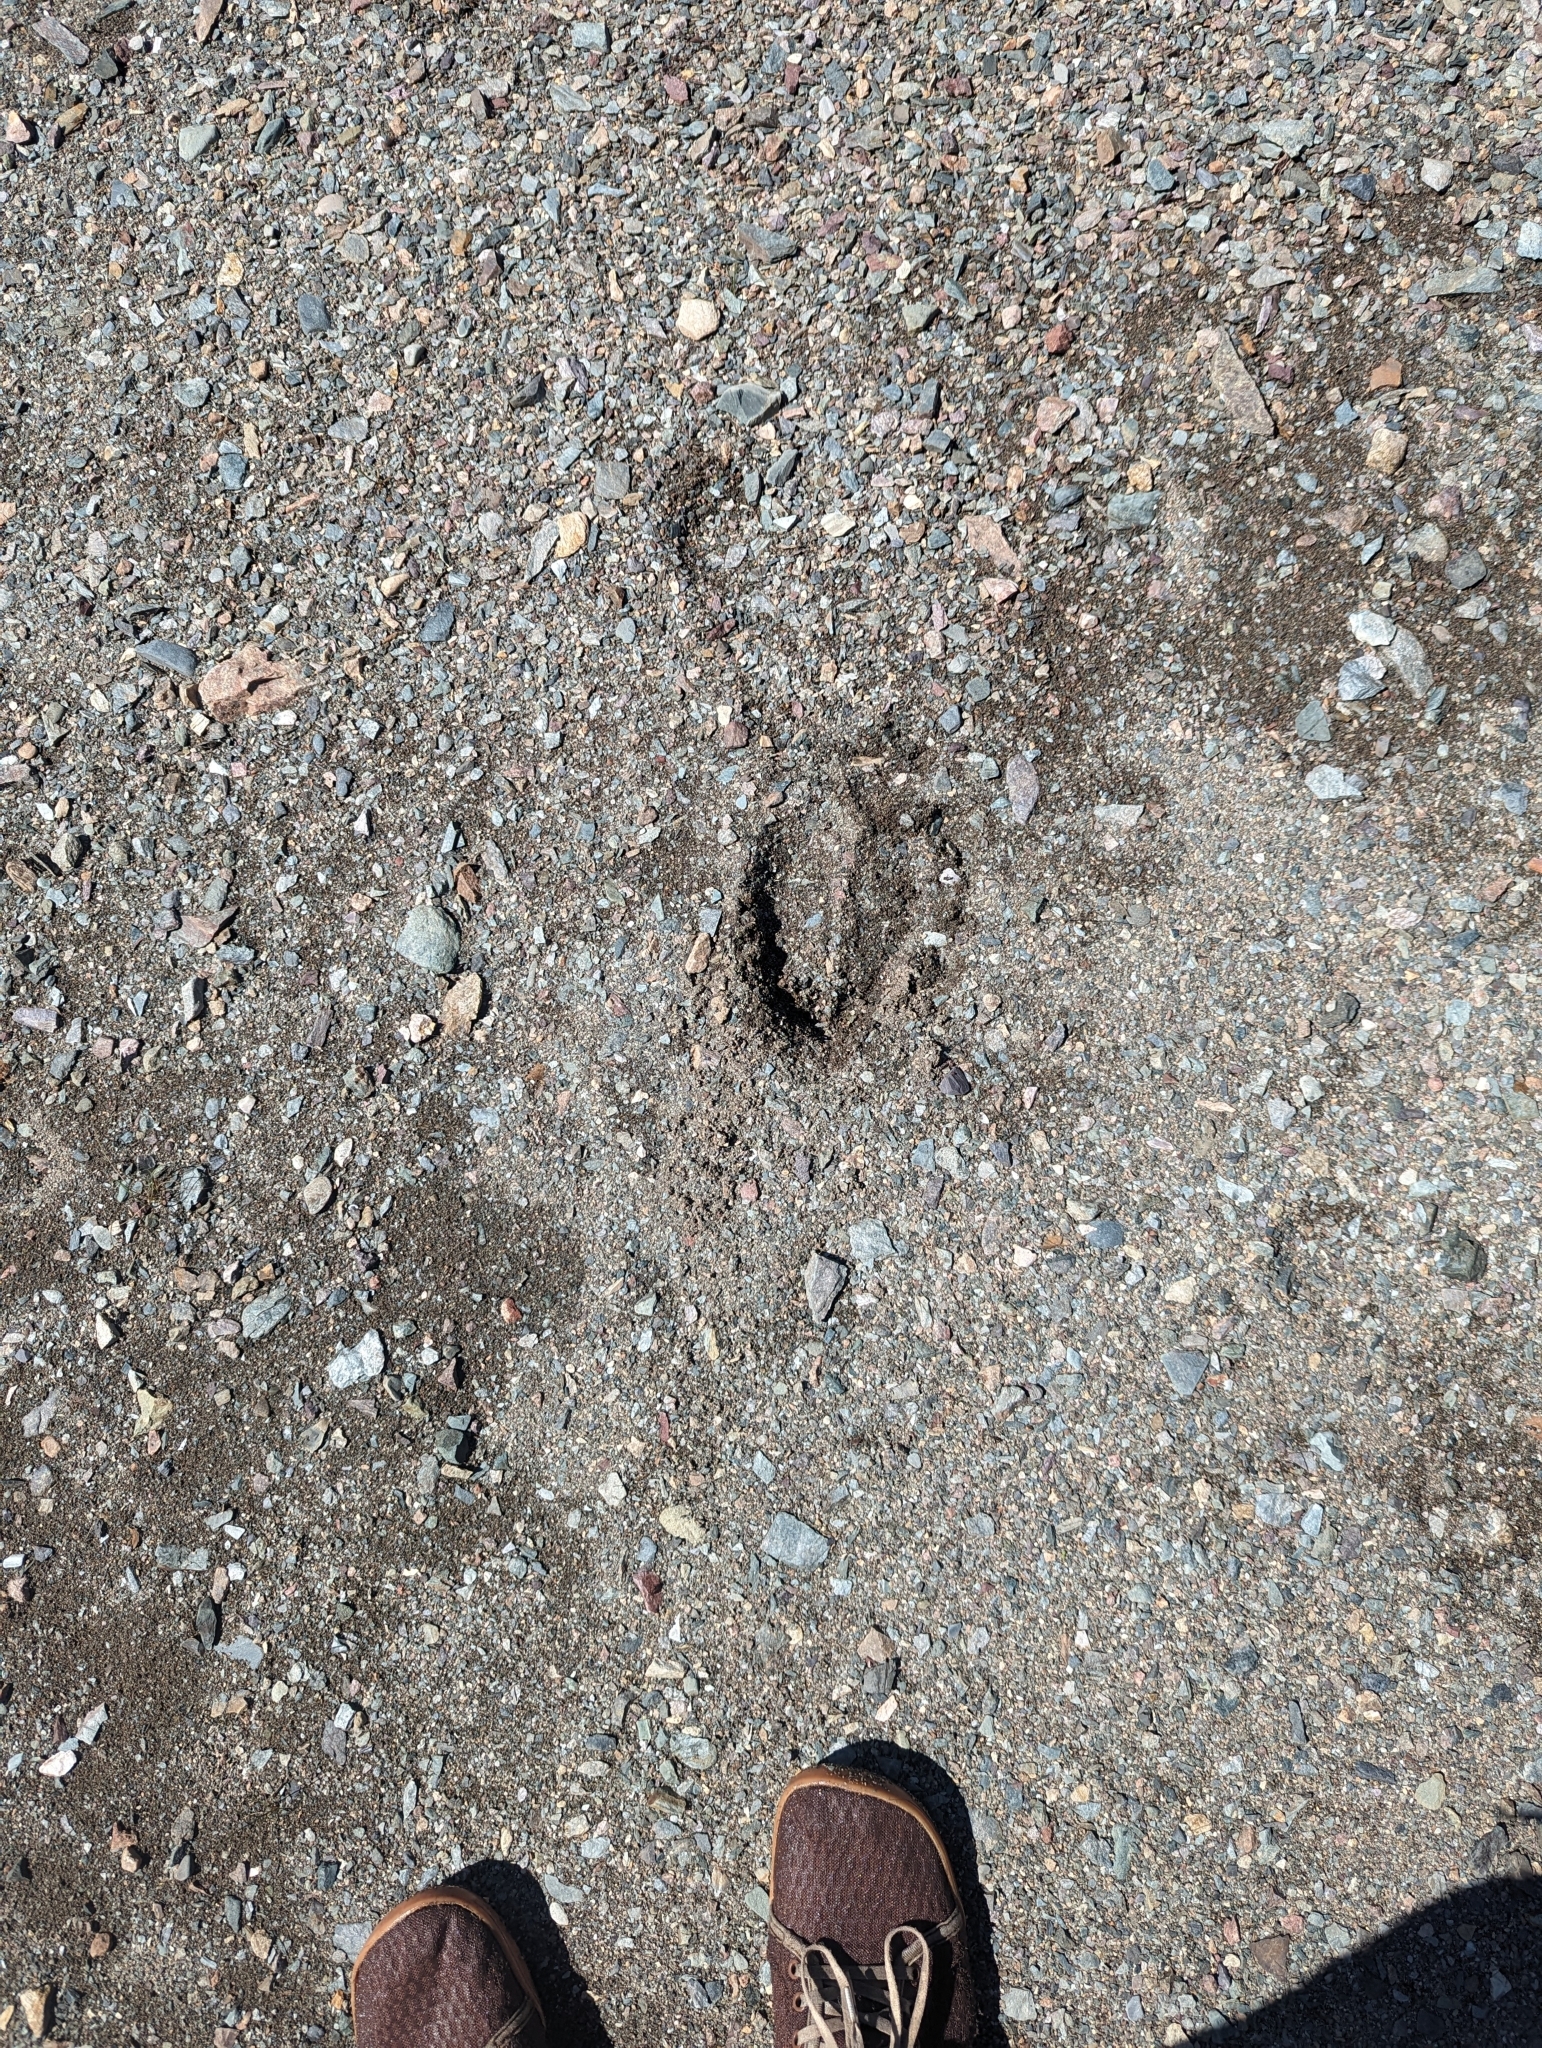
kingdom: Animalia
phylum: Chordata
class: Mammalia
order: Artiodactyla
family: Cervidae
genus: Alces
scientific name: Alces alces
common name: Moose
